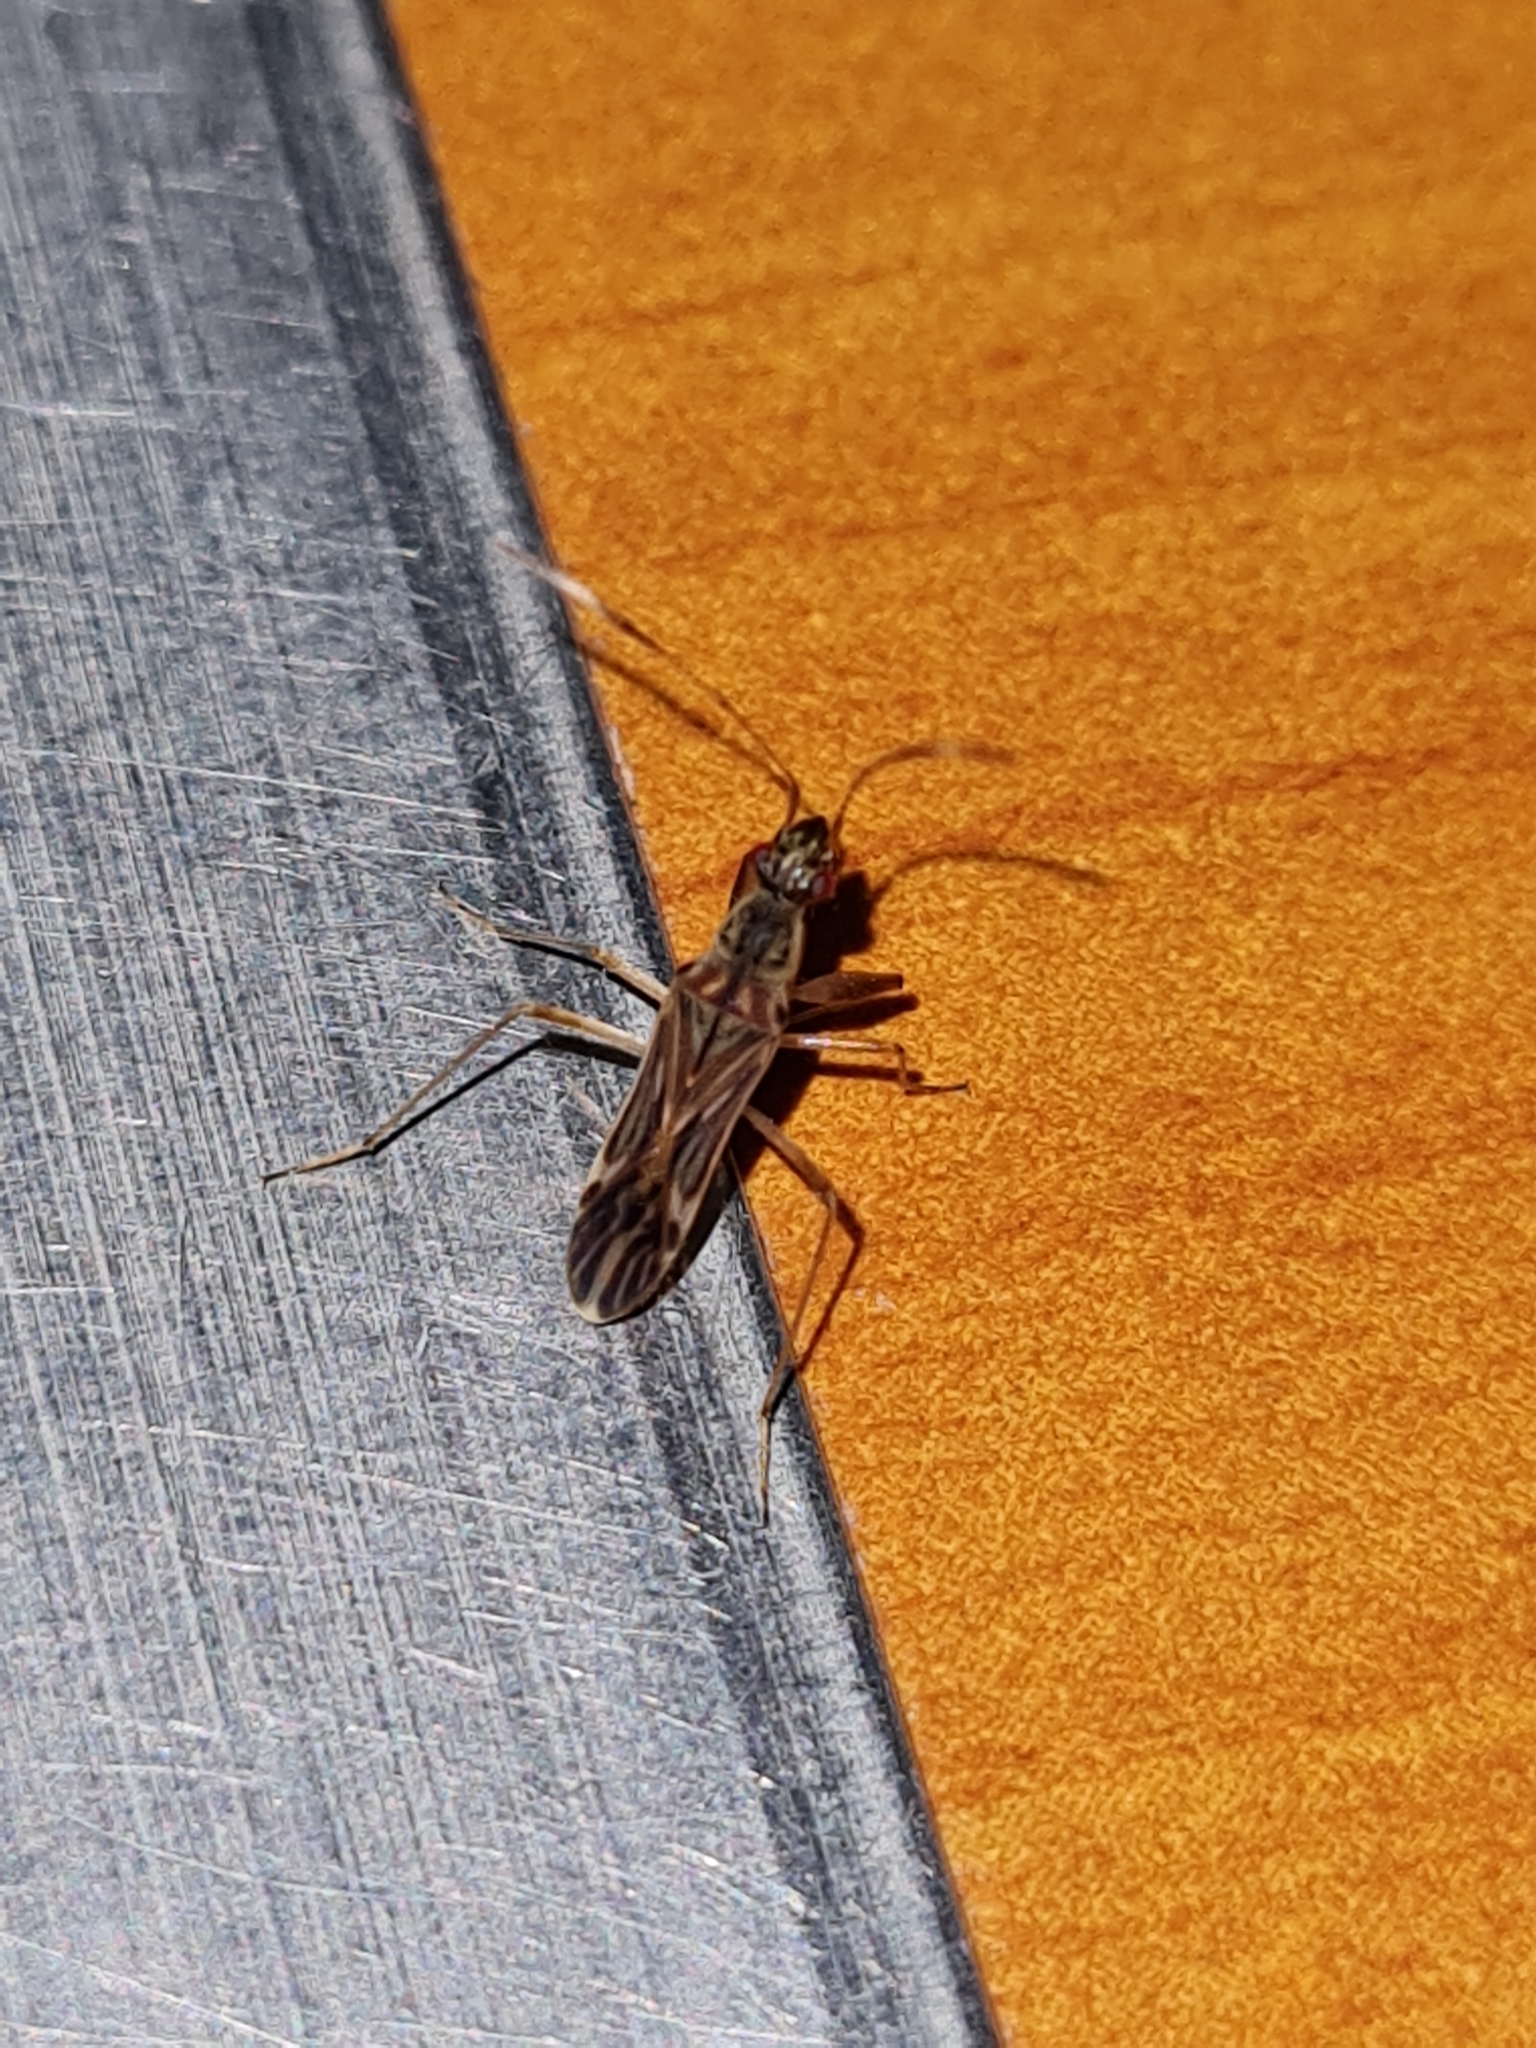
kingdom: Animalia
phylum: Arthropoda
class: Insecta
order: Hemiptera
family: Rhyparochromidae
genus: Neopamera
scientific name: Neopamera neotropicalis
